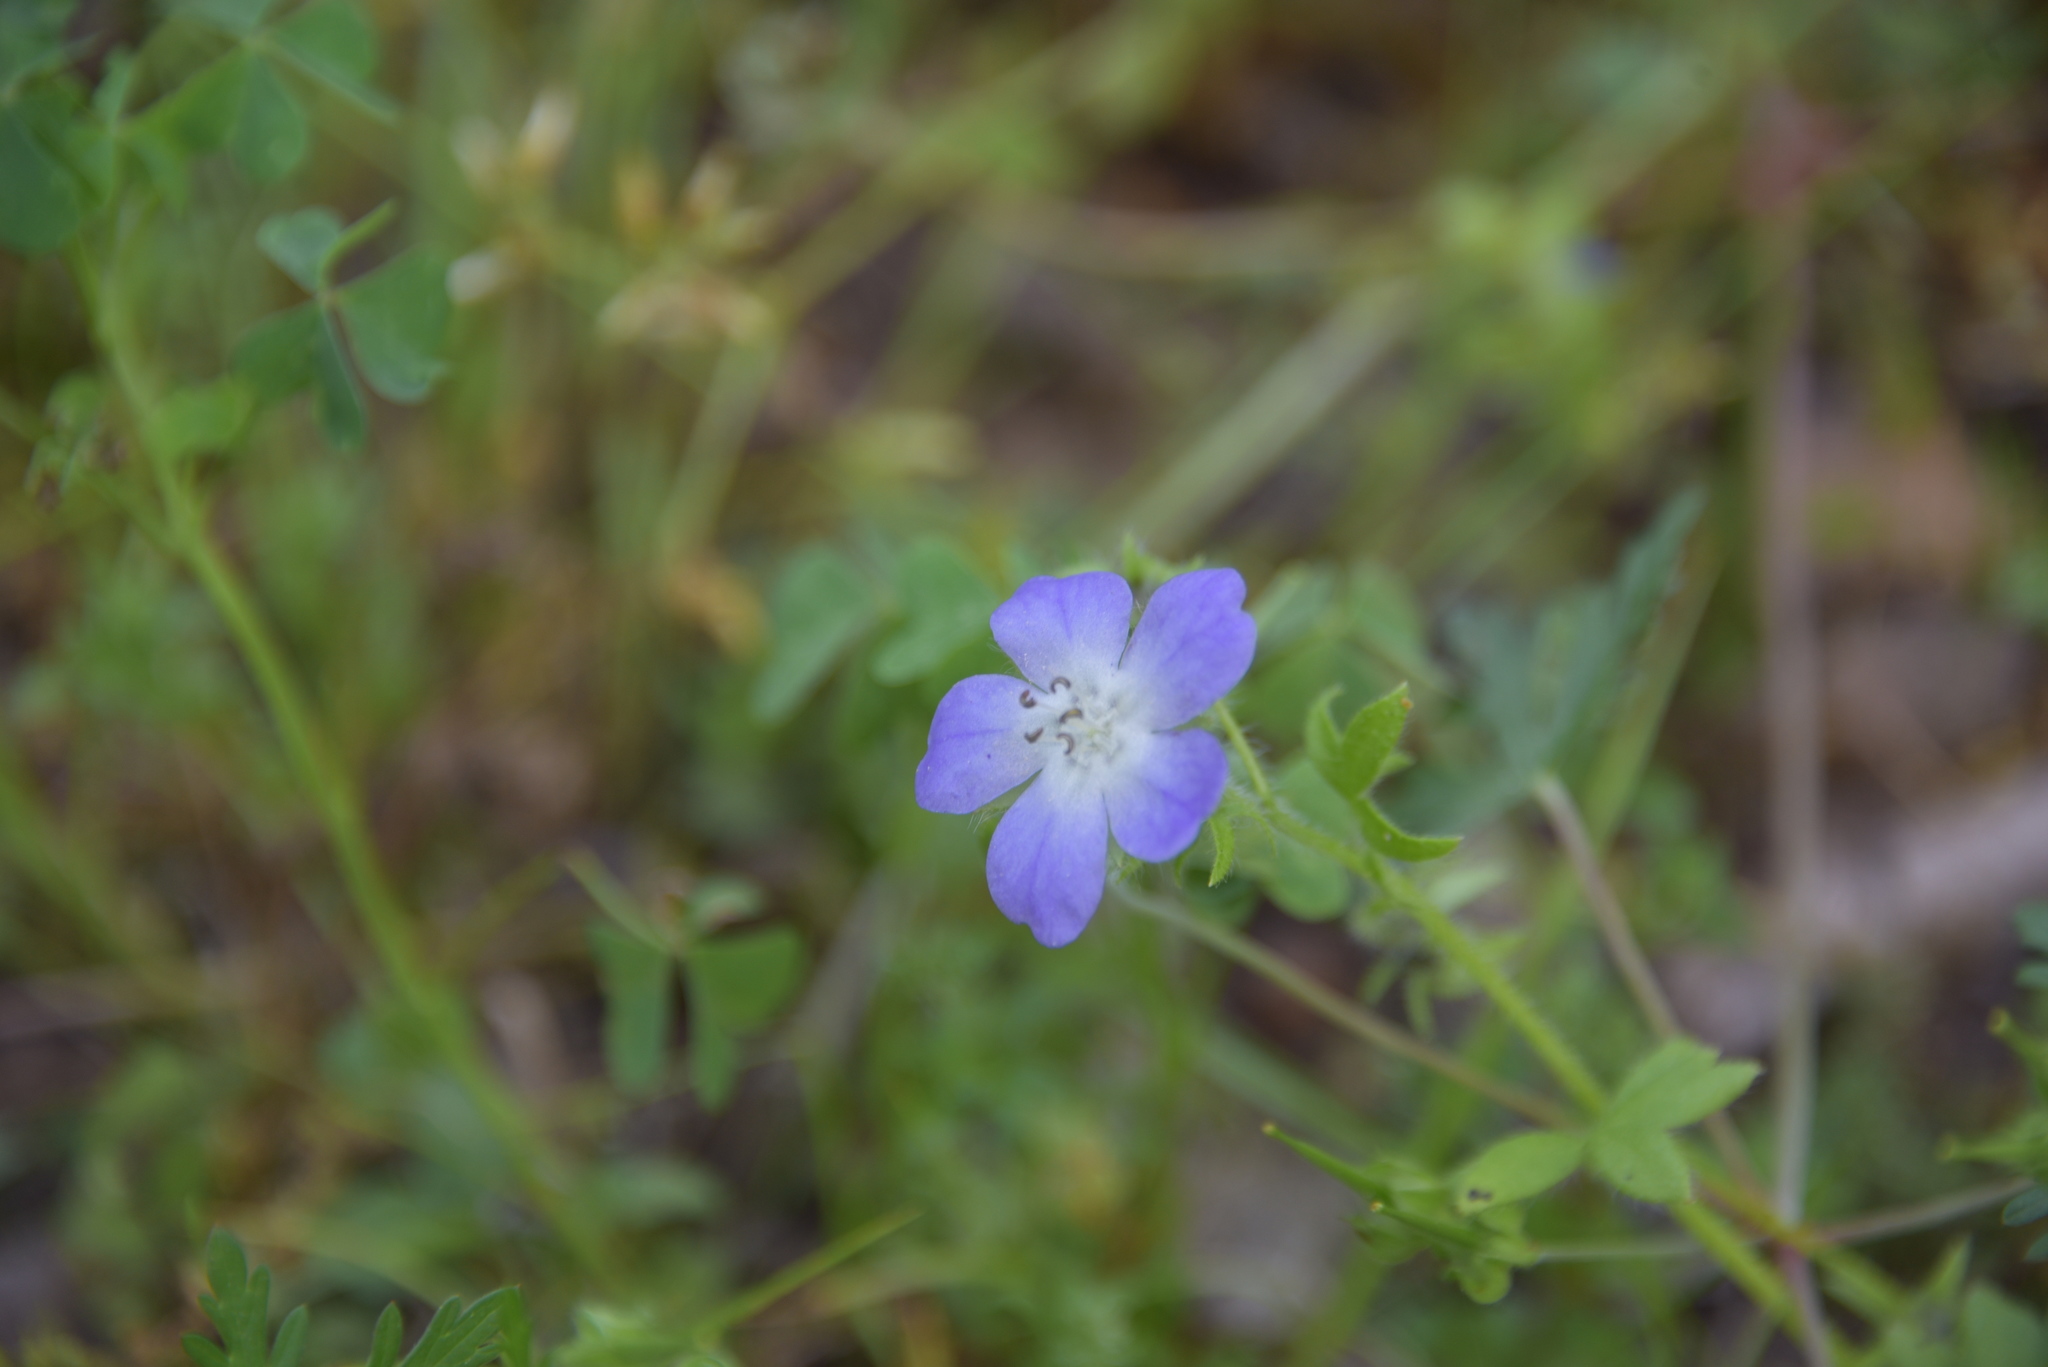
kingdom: Plantae
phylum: Tracheophyta
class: Magnoliopsida
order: Boraginales
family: Hydrophyllaceae
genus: Nemophila
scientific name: Nemophila phacelioides
